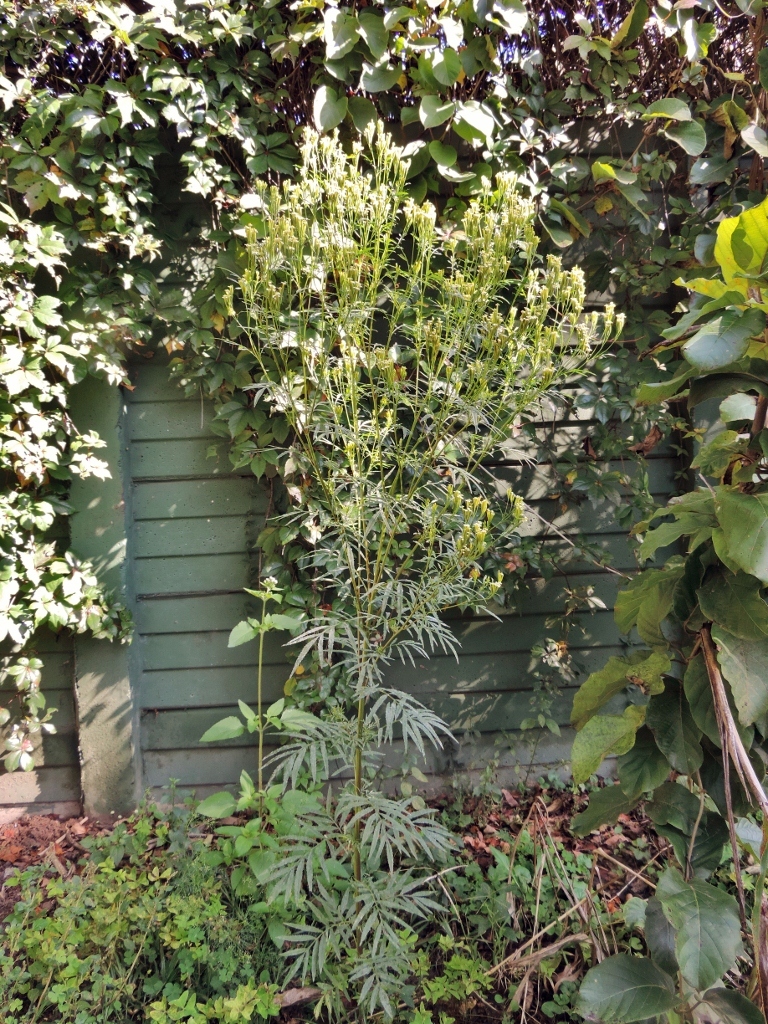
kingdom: Plantae
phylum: Tracheophyta
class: Magnoliopsida
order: Asterales
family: Asteraceae
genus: Tagetes
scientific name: Tagetes minuta
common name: Muster john henry
